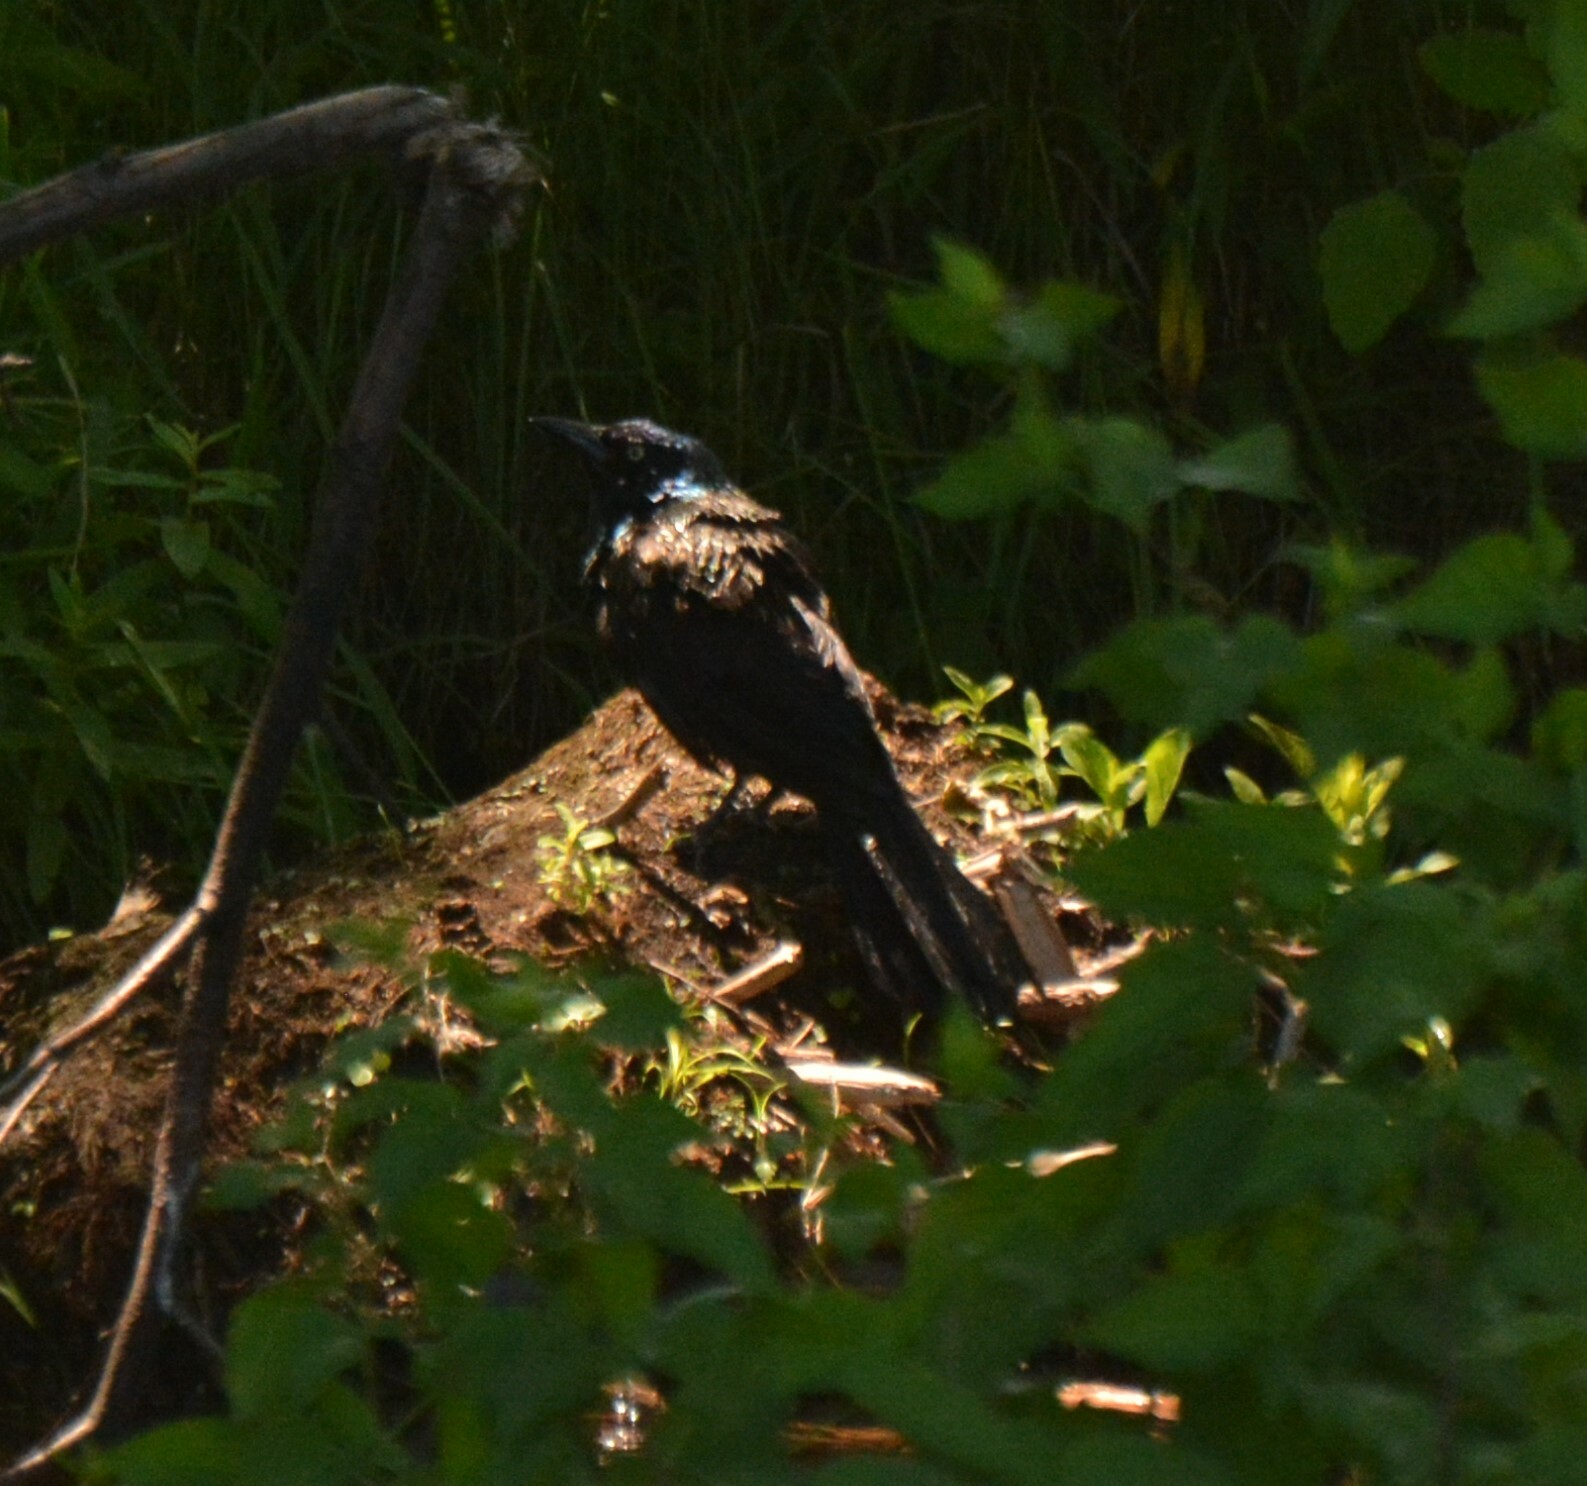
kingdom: Animalia
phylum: Chordata
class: Aves
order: Passeriformes
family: Icteridae
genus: Quiscalus
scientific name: Quiscalus quiscula
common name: Common grackle
